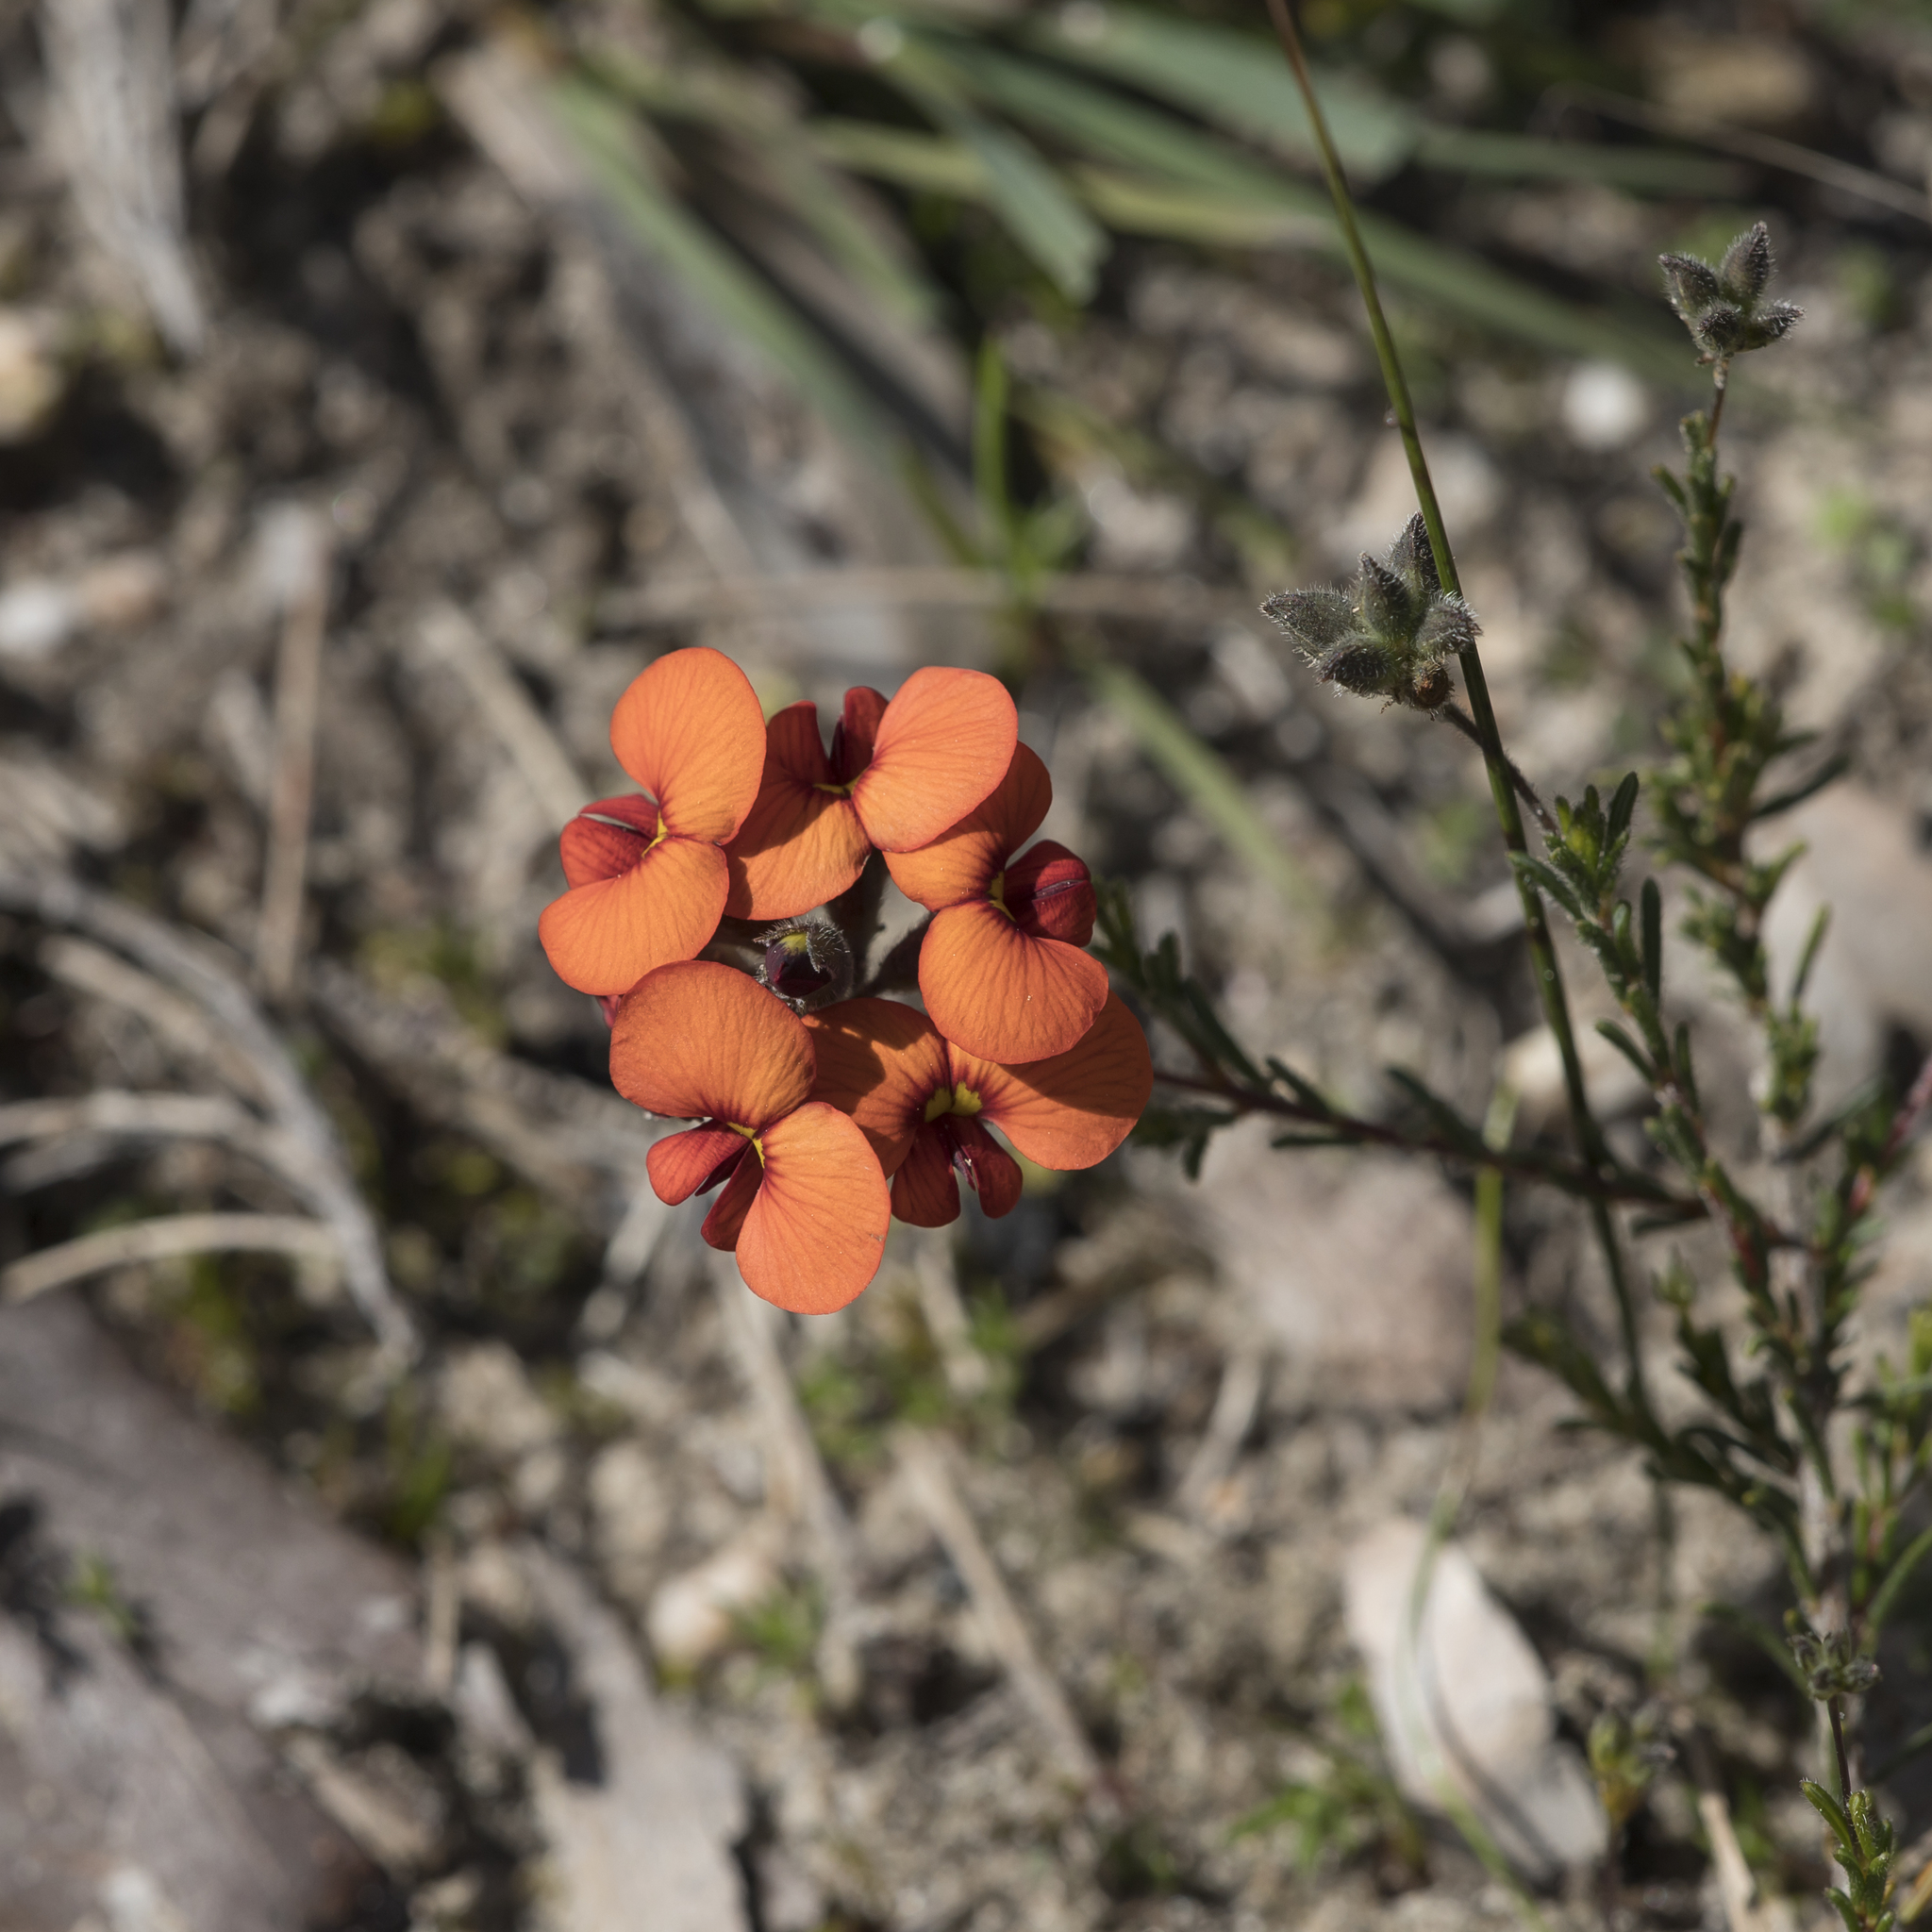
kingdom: Plantae
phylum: Tracheophyta
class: Magnoliopsida
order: Fabales
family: Fabaceae
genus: Dillwynia
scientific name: Dillwynia hispida
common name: Red parrot-pea
